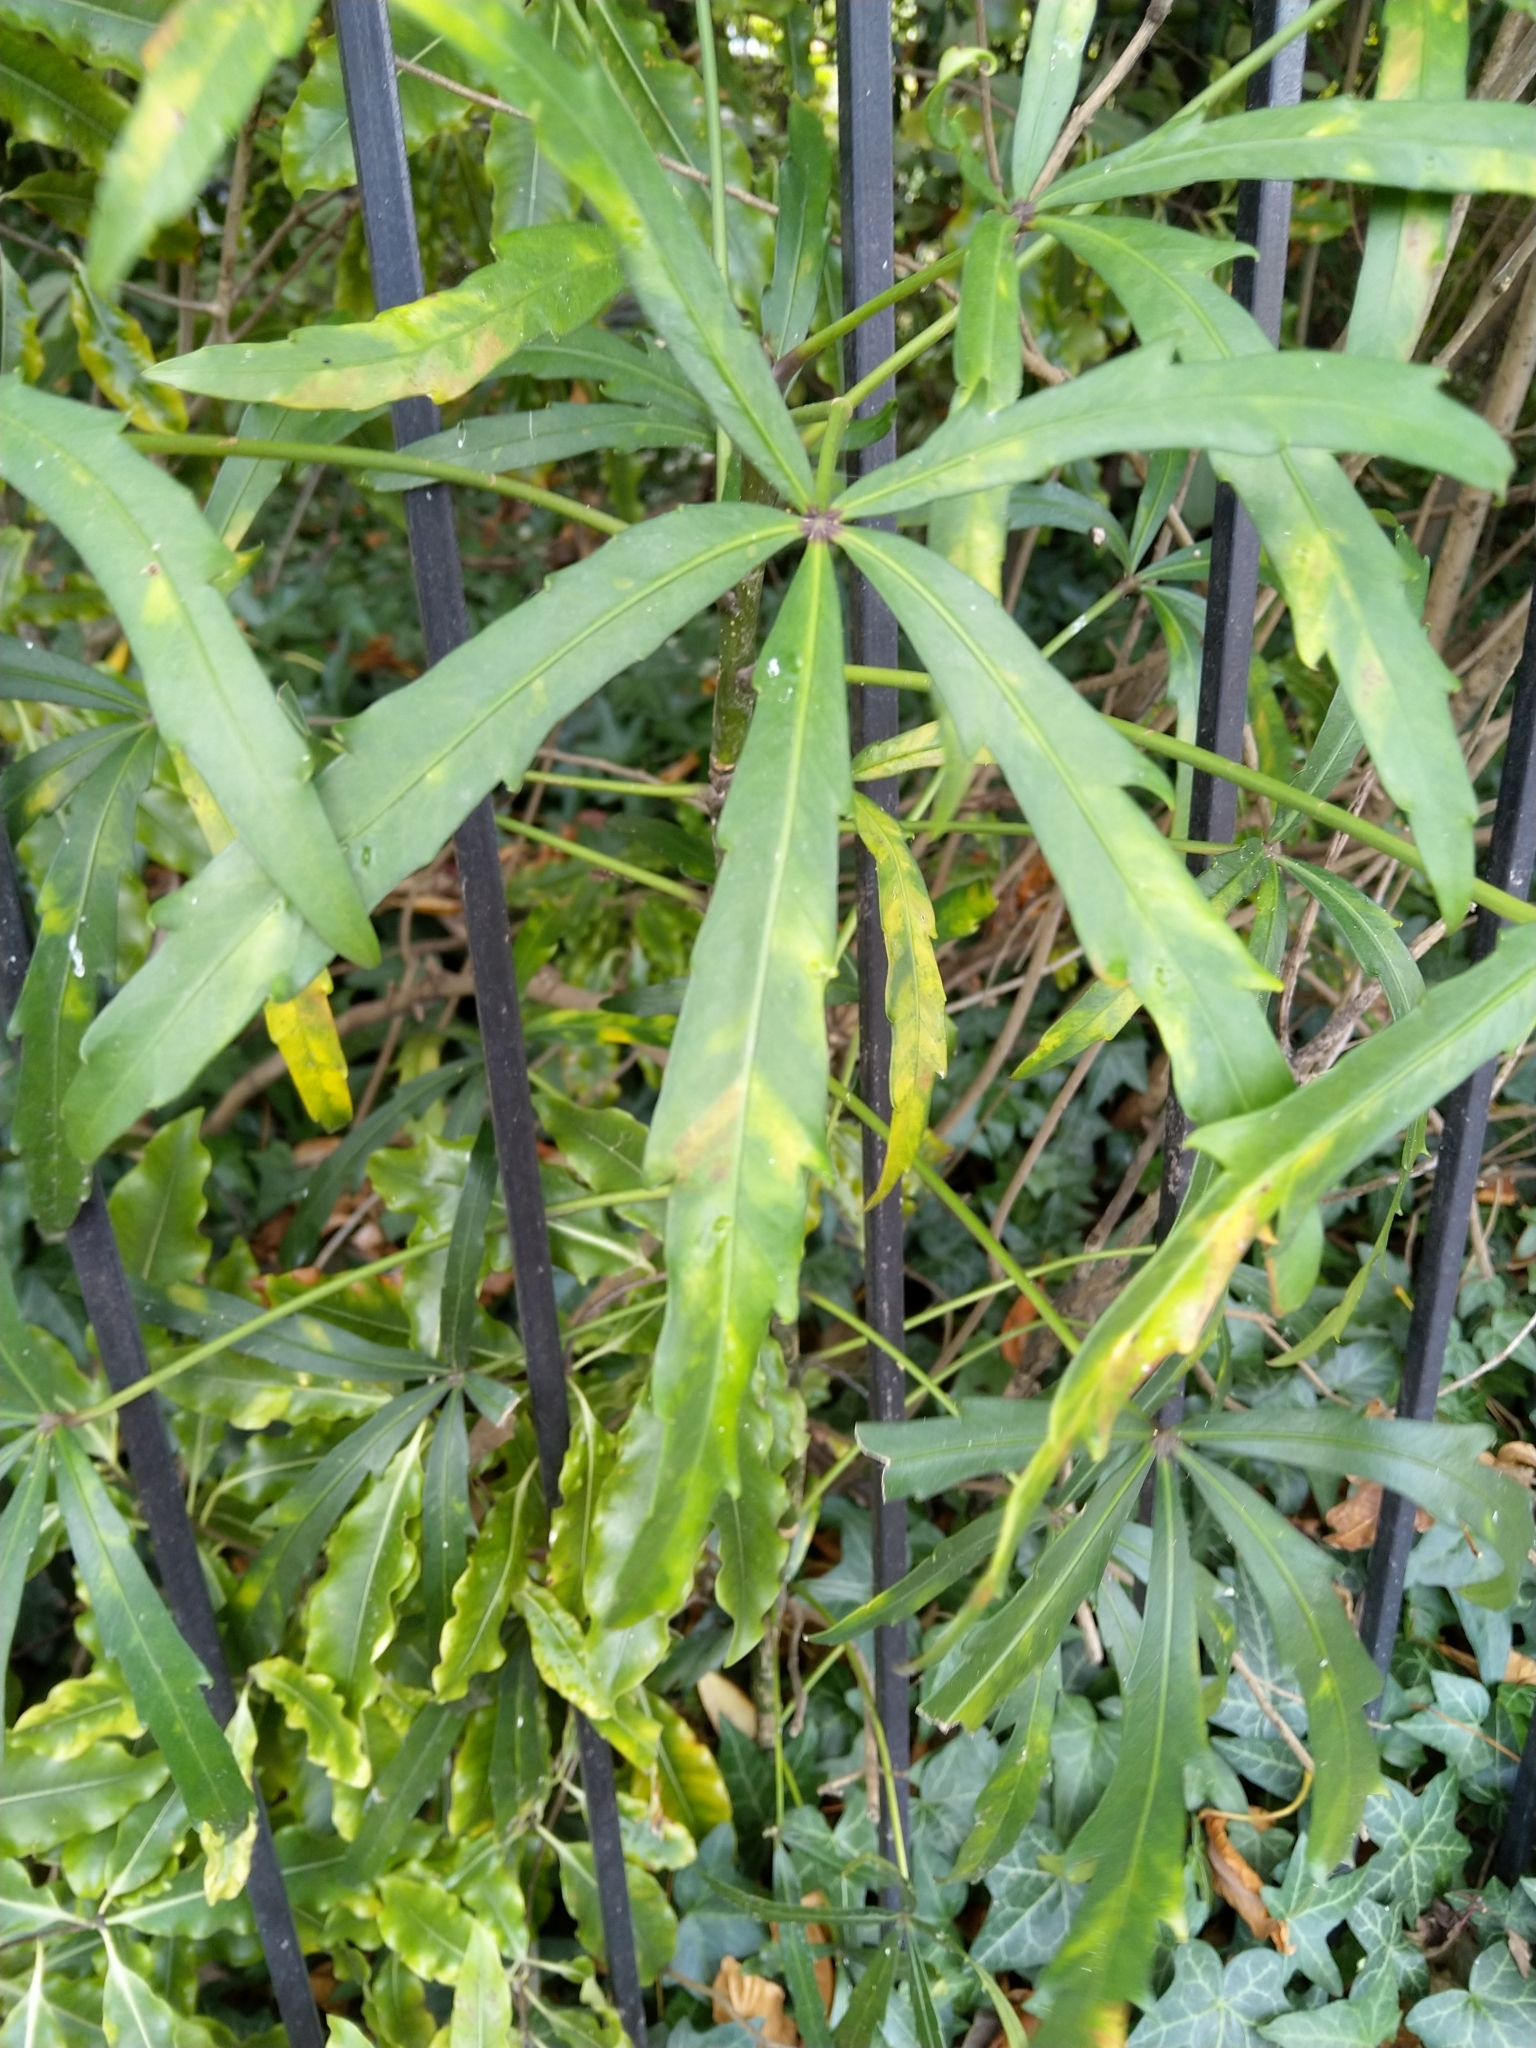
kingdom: Plantae
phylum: Tracheophyta
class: Magnoliopsida
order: Apiales
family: Araliaceae
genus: Pseudopanax
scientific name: Pseudopanax
